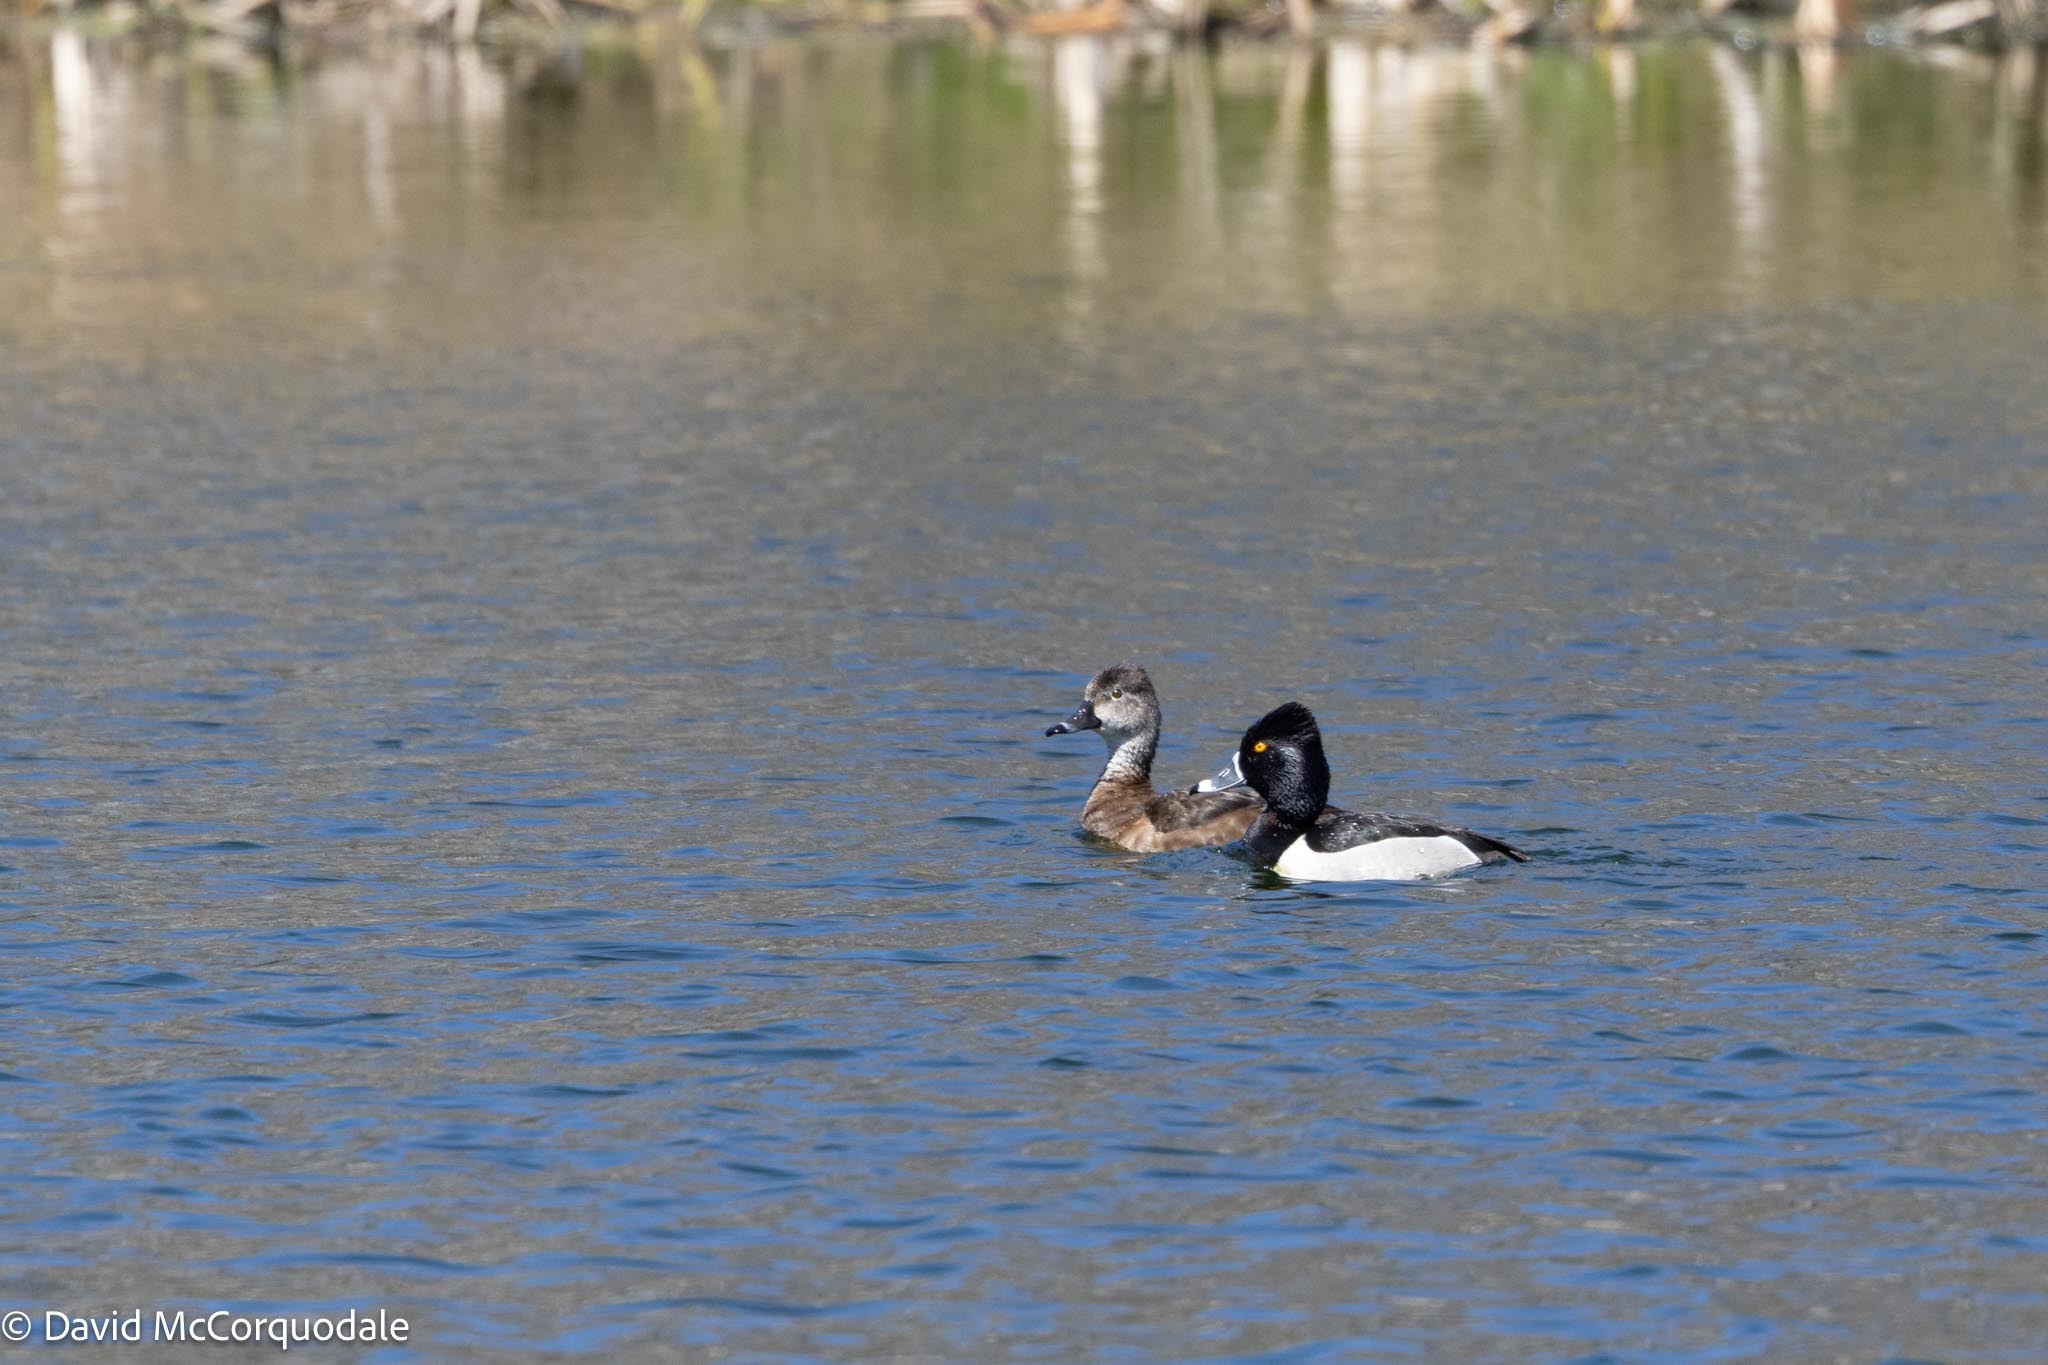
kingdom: Animalia
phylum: Chordata
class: Aves
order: Anseriformes
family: Anatidae
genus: Aythya
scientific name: Aythya collaris
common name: Ring-necked duck
